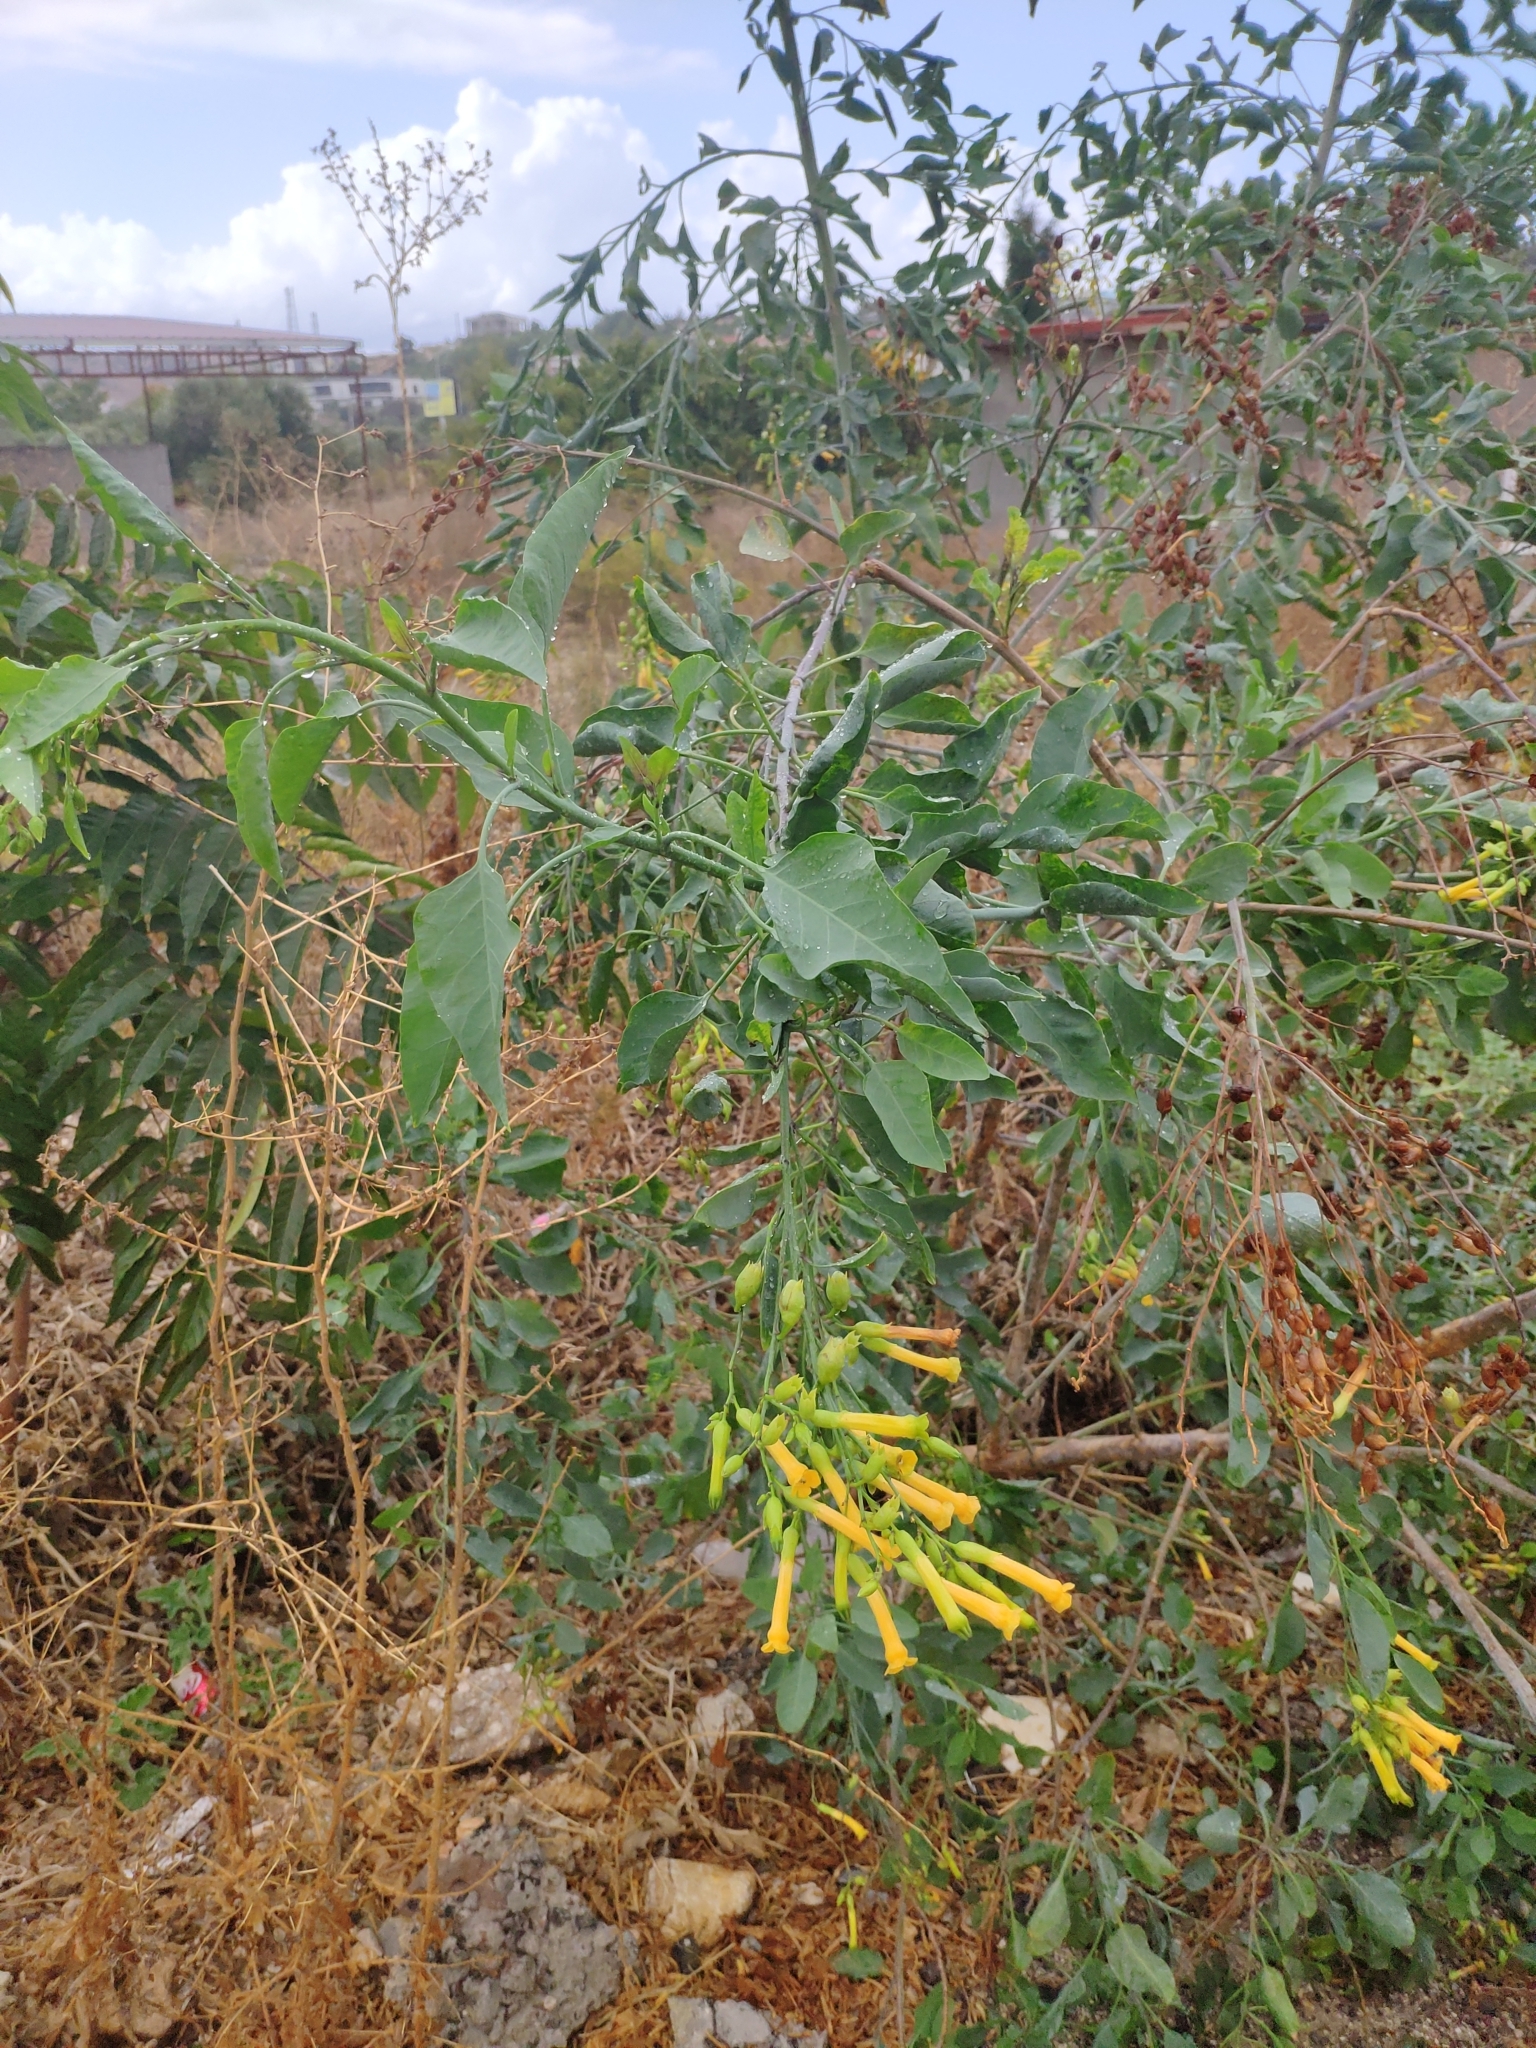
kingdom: Plantae
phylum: Tracheophyta
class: Magnoliopsida
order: Solanales
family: Solanaceae
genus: Nicotiana
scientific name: Nicotiana glauca
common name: Tree tobacco
